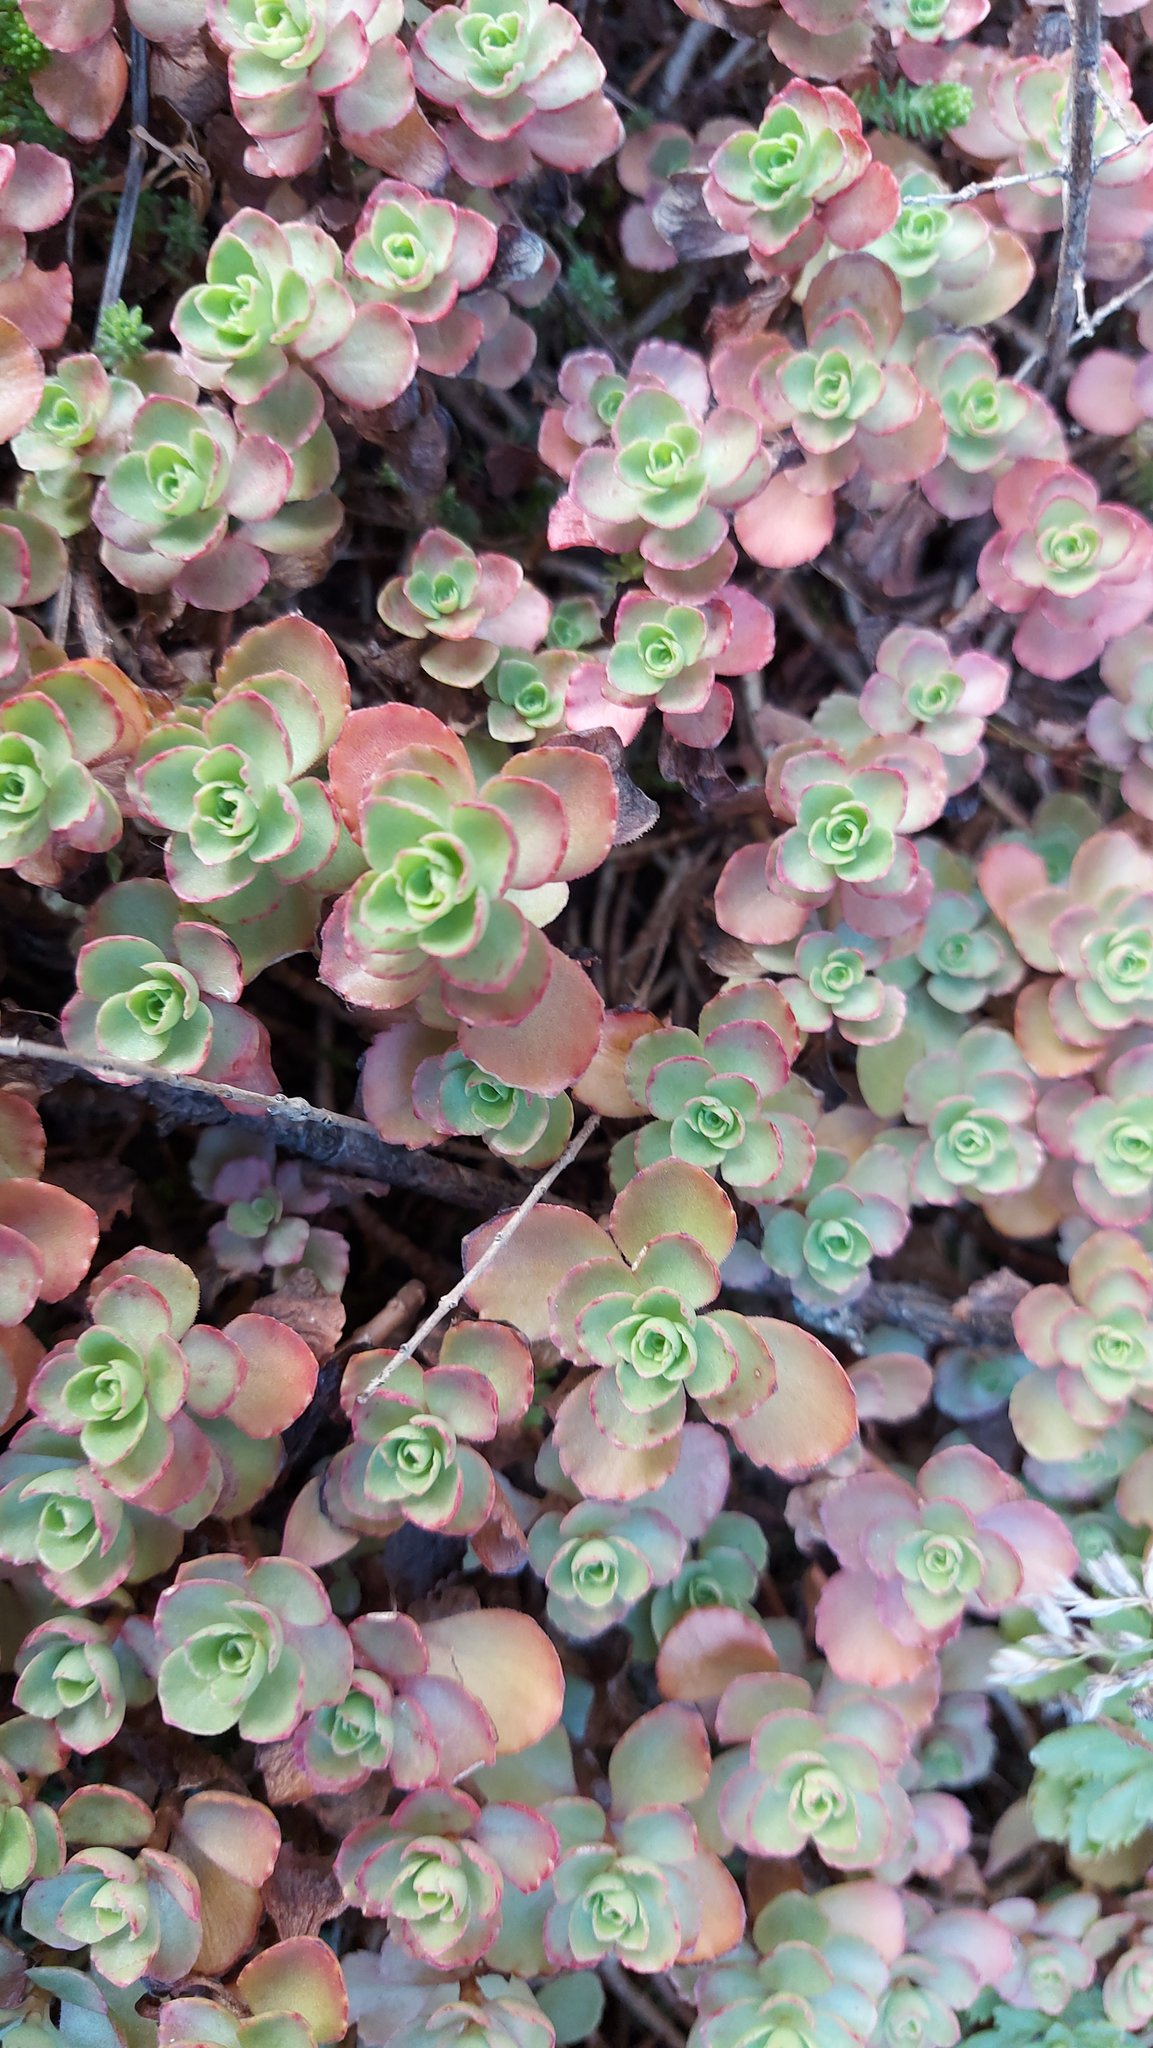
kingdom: Plantae
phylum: Tracheophyta
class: Magnoliopsida
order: Saxifragales
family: Crassulaceae
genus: Phedimus
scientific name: Phedimus spurius
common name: Caucasian stonecrop
